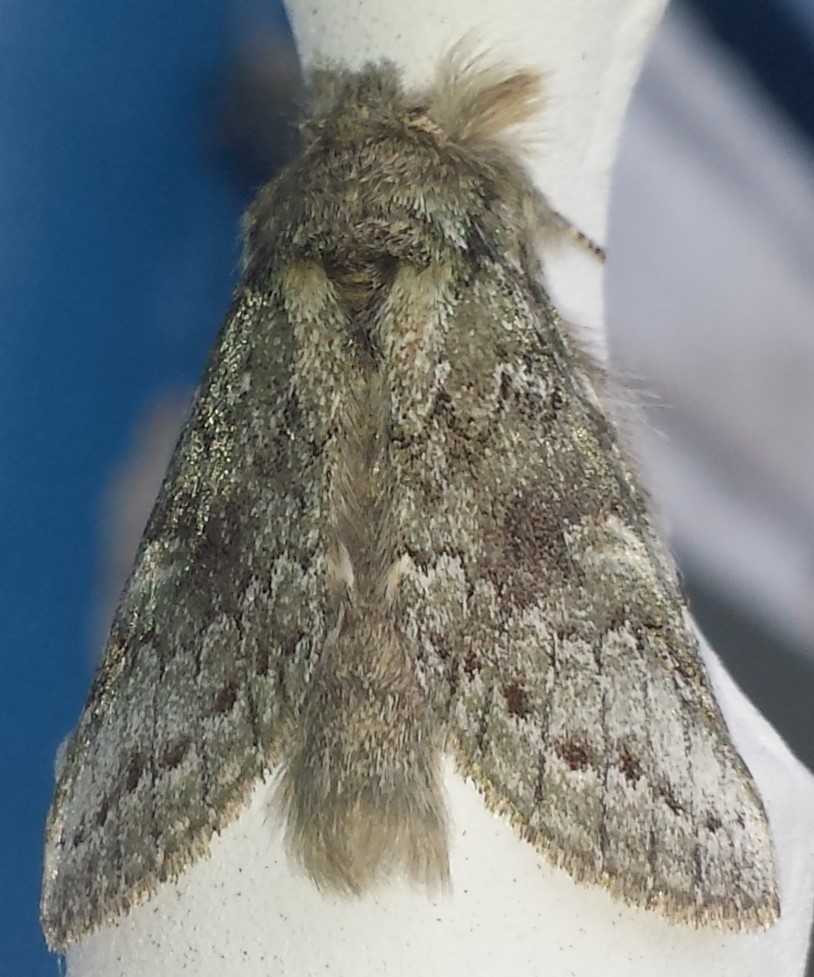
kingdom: Animalia
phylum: Arthropoda
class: Insecta
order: Lepidoptera
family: Notodontidae
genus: Notodonta
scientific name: Notodonta torva
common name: Large dark prominent
